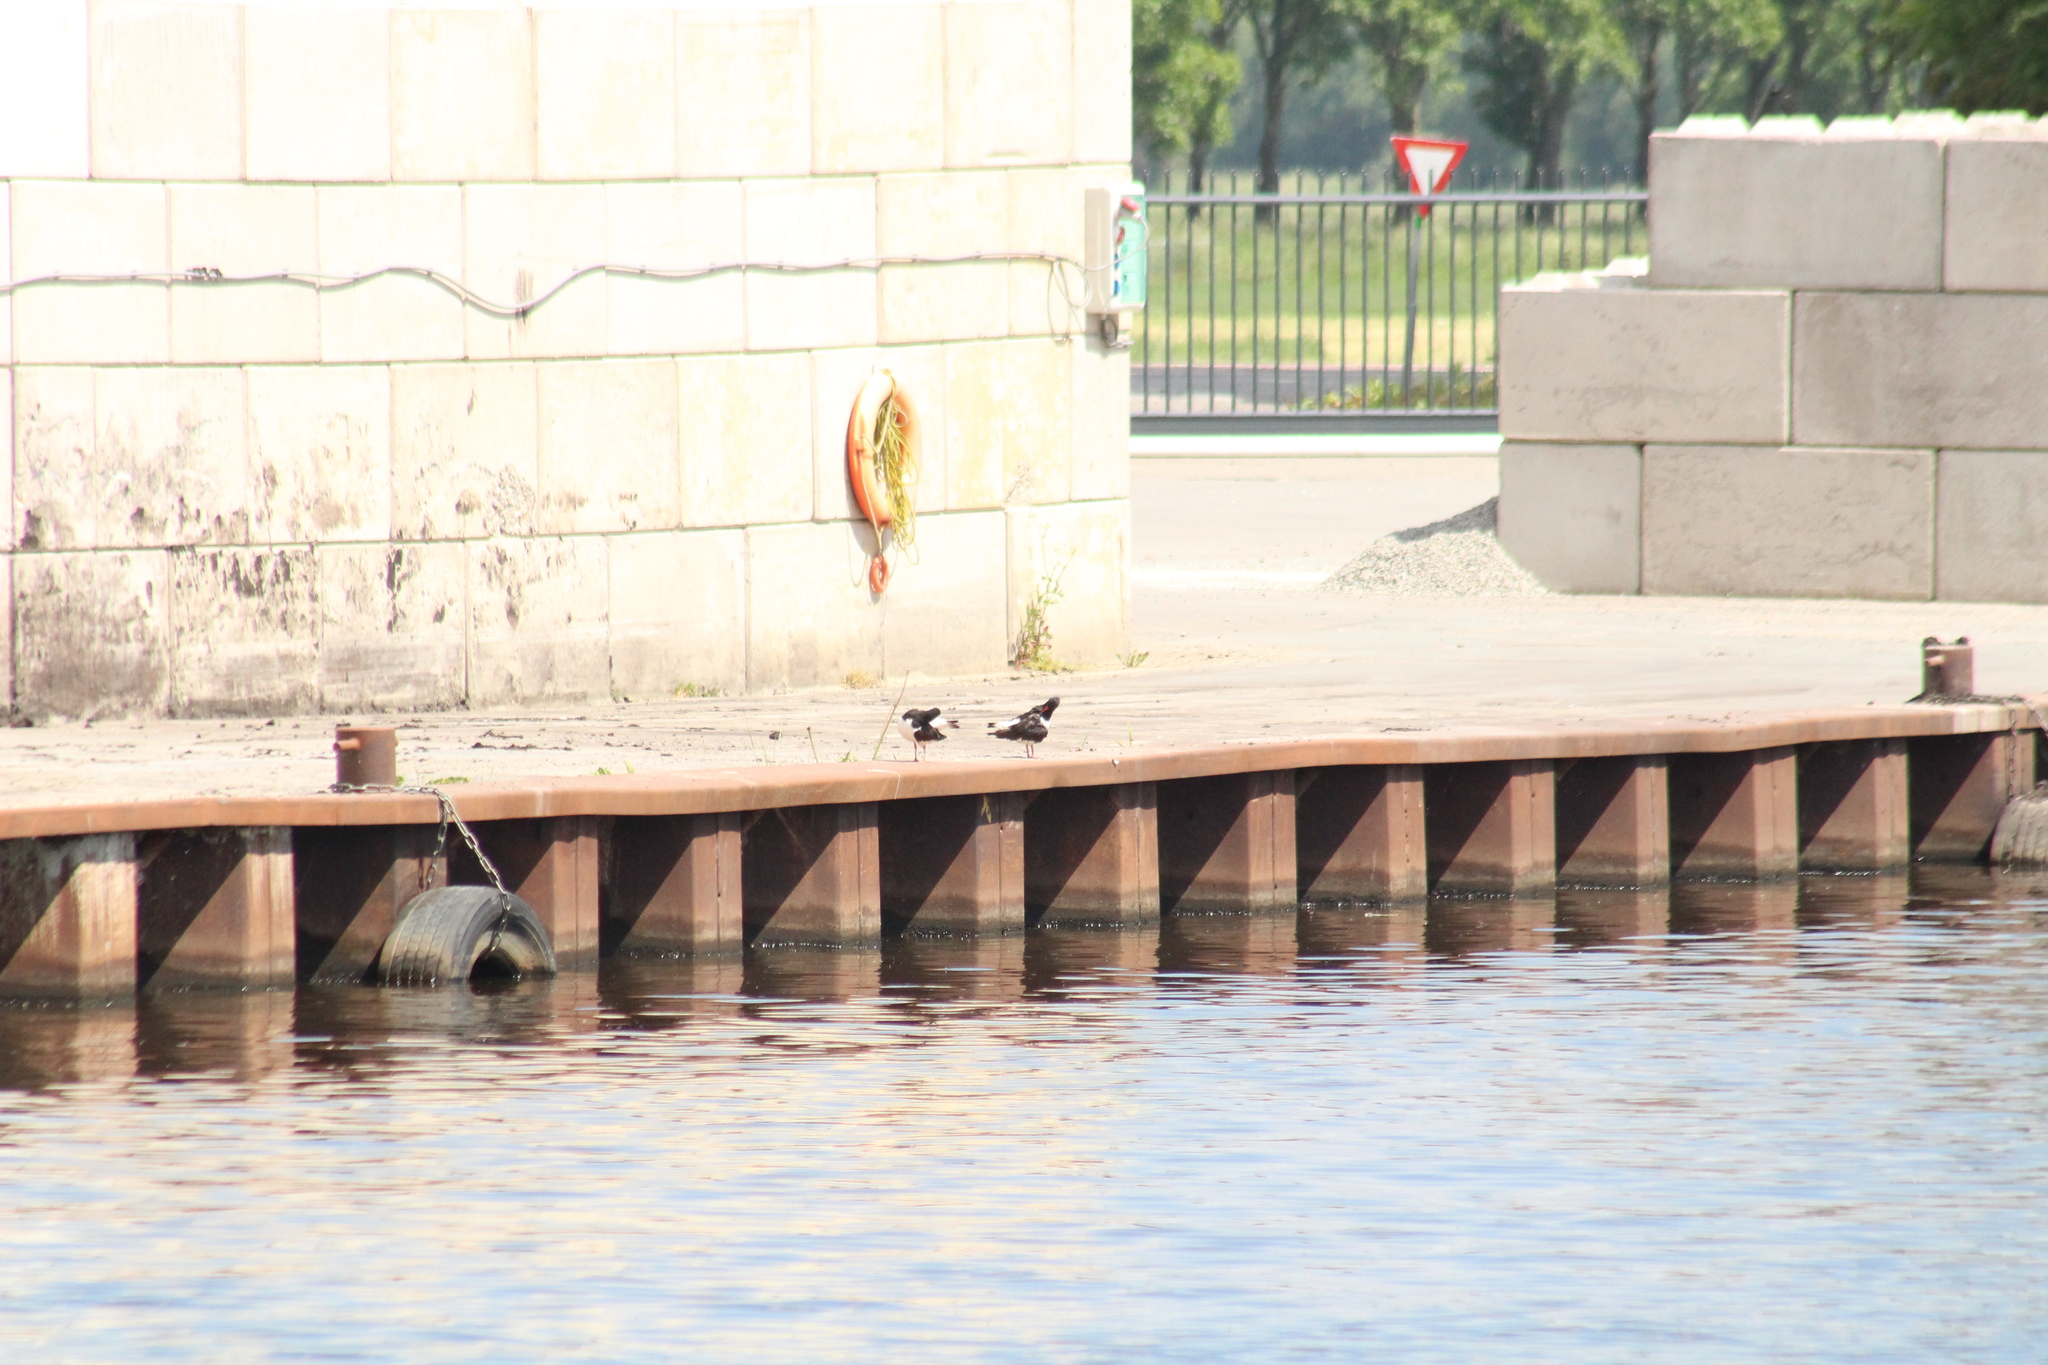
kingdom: Animalia
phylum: Chordata
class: Aves
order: Charadriiformes
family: Haematopodidae
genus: Haematopus
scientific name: Haematopus ostralegus
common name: Eurasian oystercatcher
